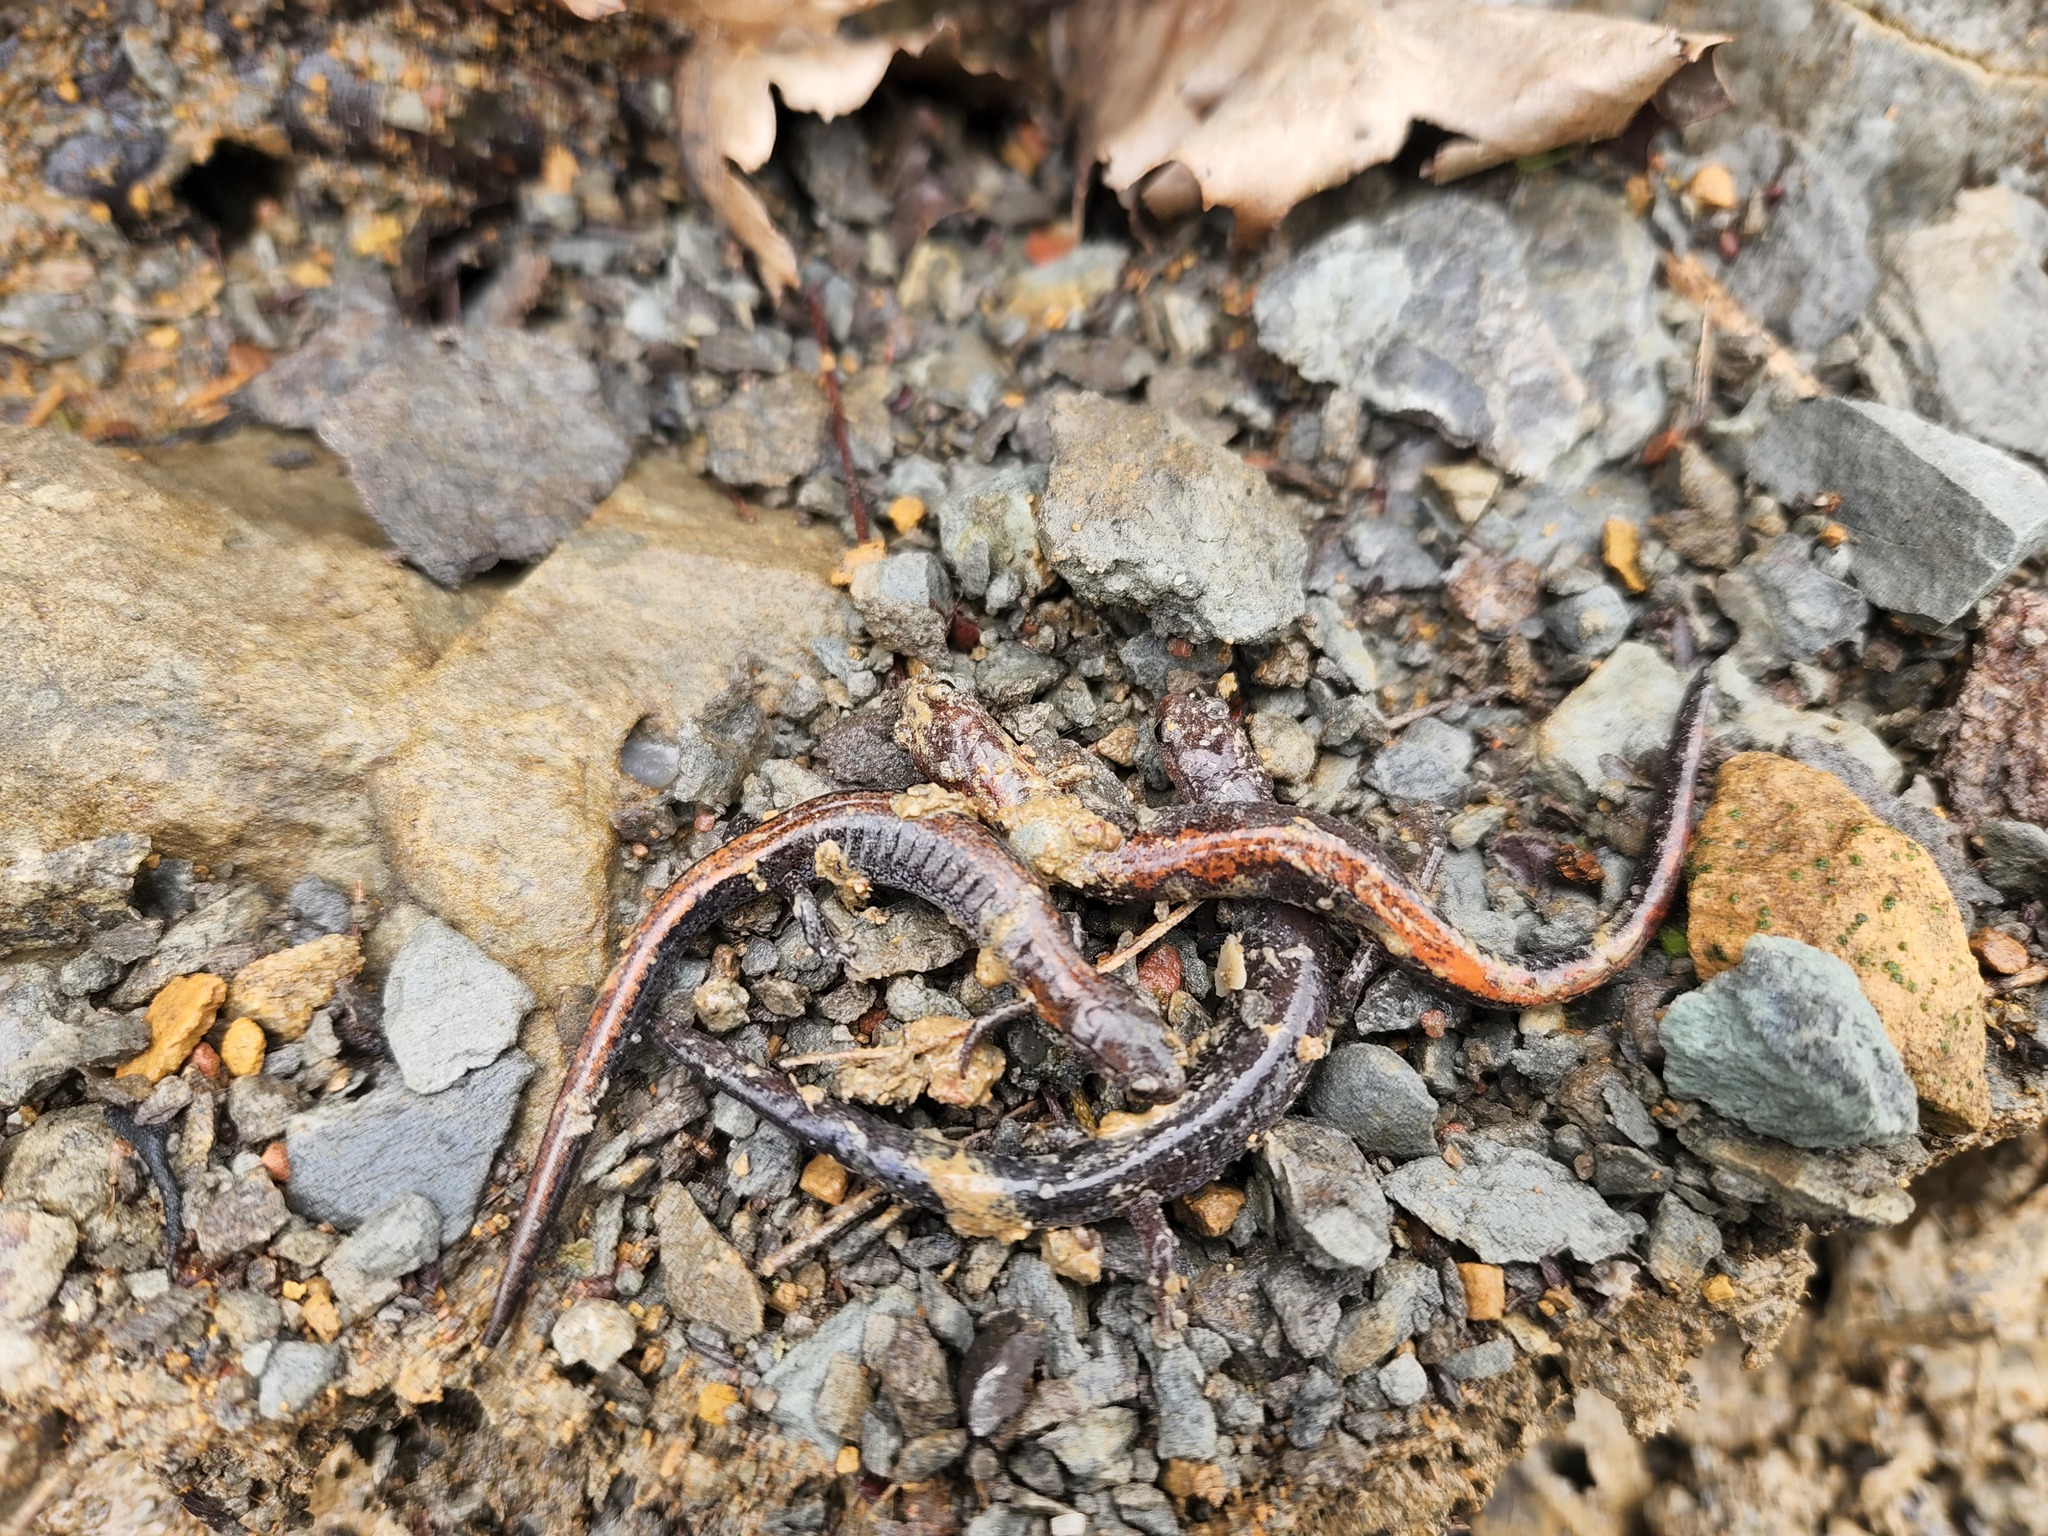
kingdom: Animalia
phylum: Chordata
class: Amphibia
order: Caudata
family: Plethodontidae
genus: Plethodon
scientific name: Plethodon dorsalis
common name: Northern zigzag salamander
